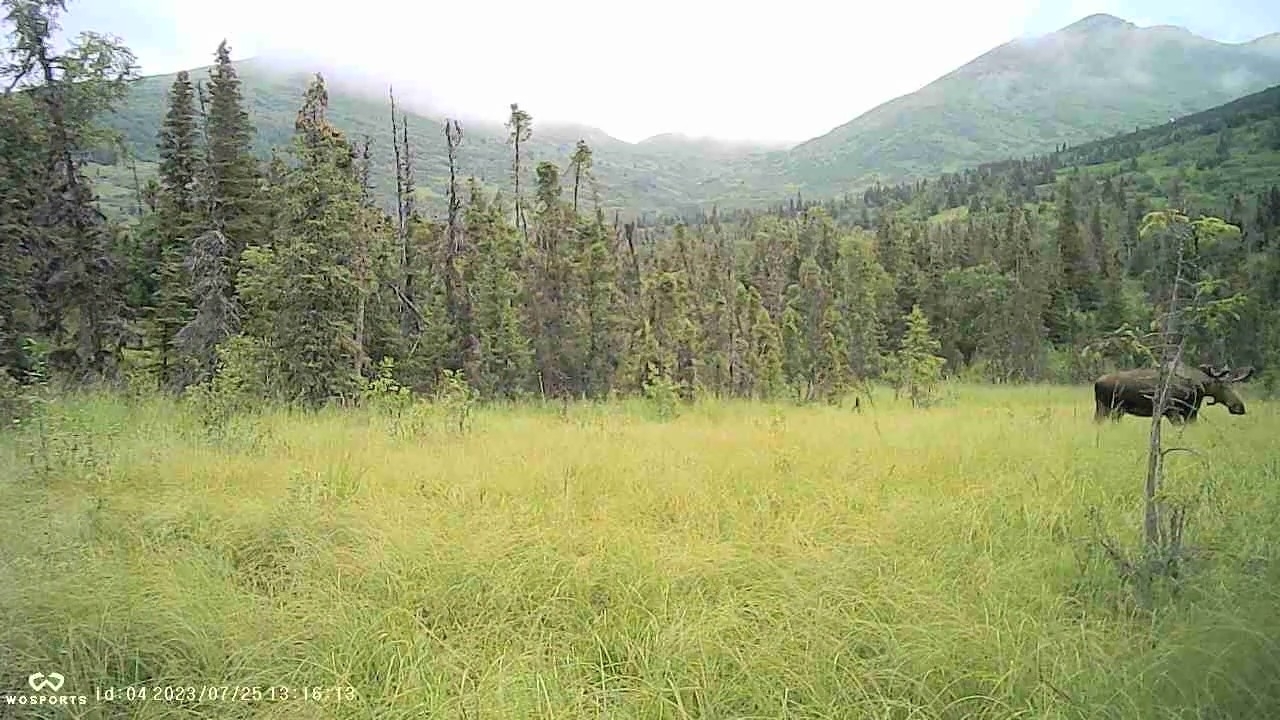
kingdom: Animalia
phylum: Chordata
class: Mammalia
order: Artiodactyla
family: Cervidae
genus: Alces
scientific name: Alces alces
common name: Moose
